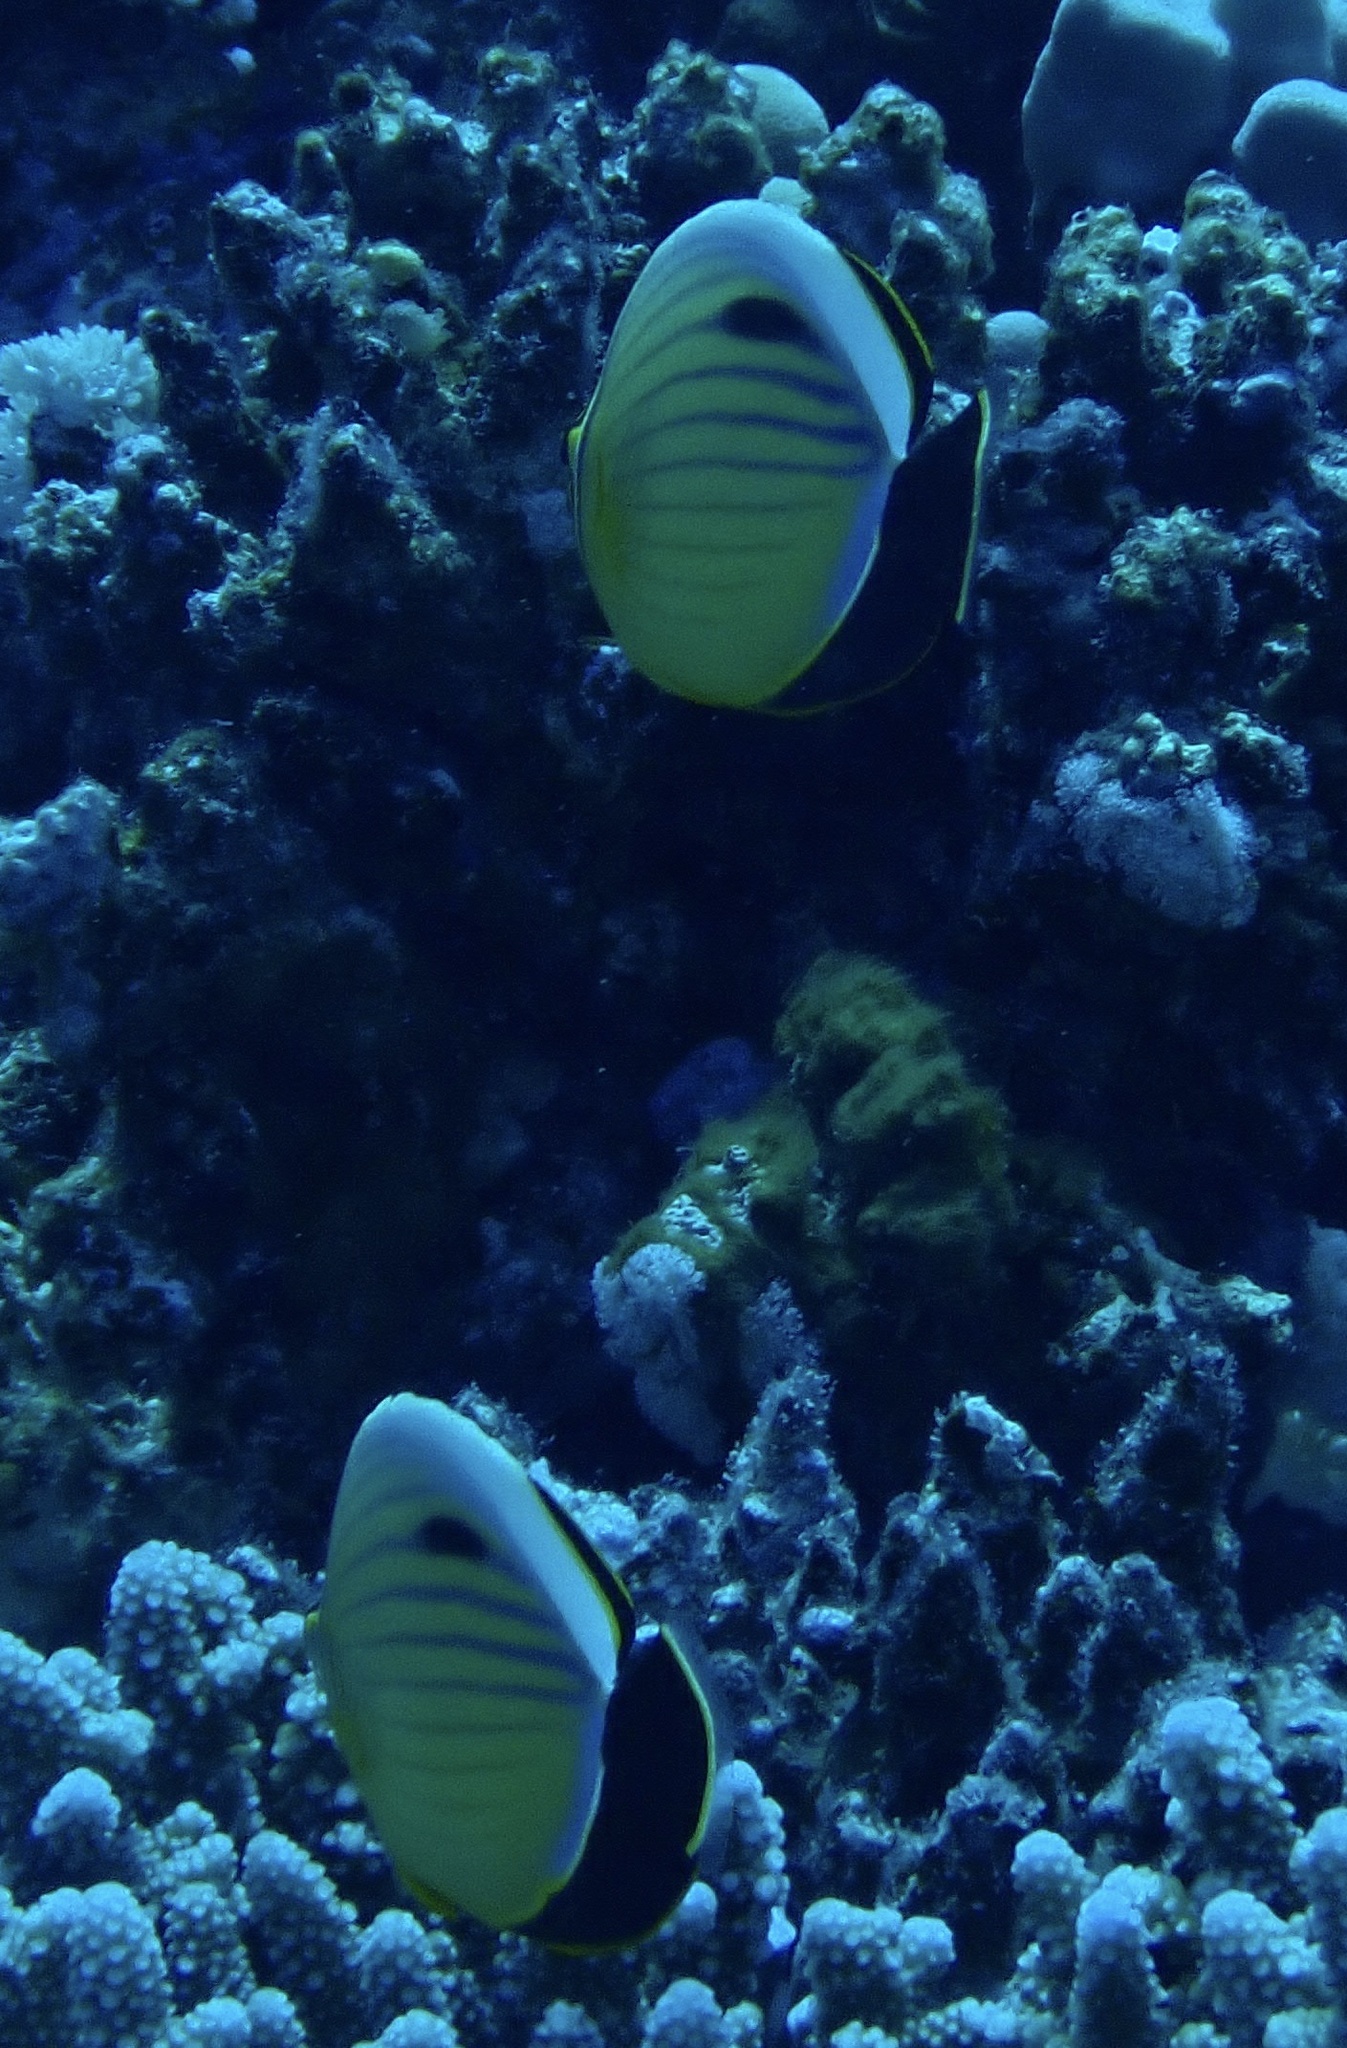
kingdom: Animalia
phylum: Chordata
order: Perciformes
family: Chaetodontidae
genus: Chaetodon
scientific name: Chaetodon austriacus
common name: Exquisite butterflyfish
